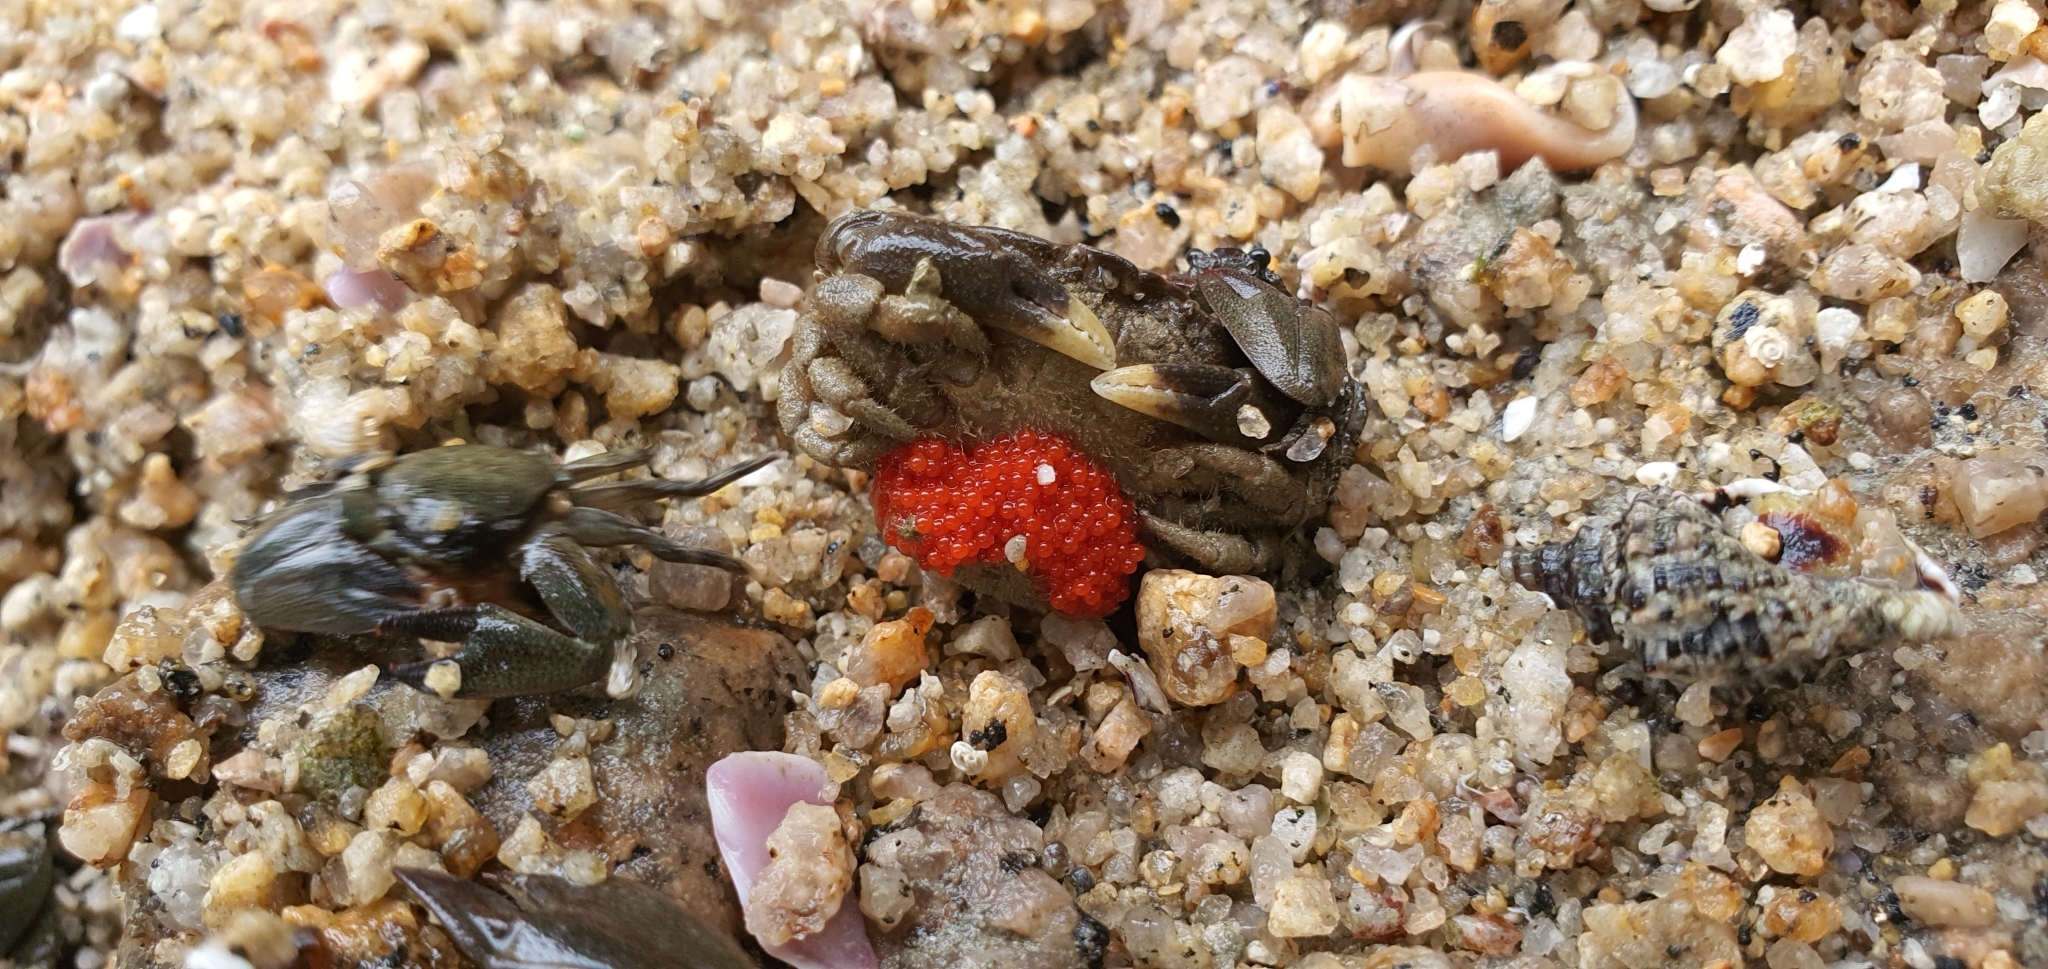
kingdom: Animalia
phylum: Arthropoda
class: Malacostraca
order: Decapoda
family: Heteroziidae
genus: Heterozius
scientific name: Heterozius rotundifrons
